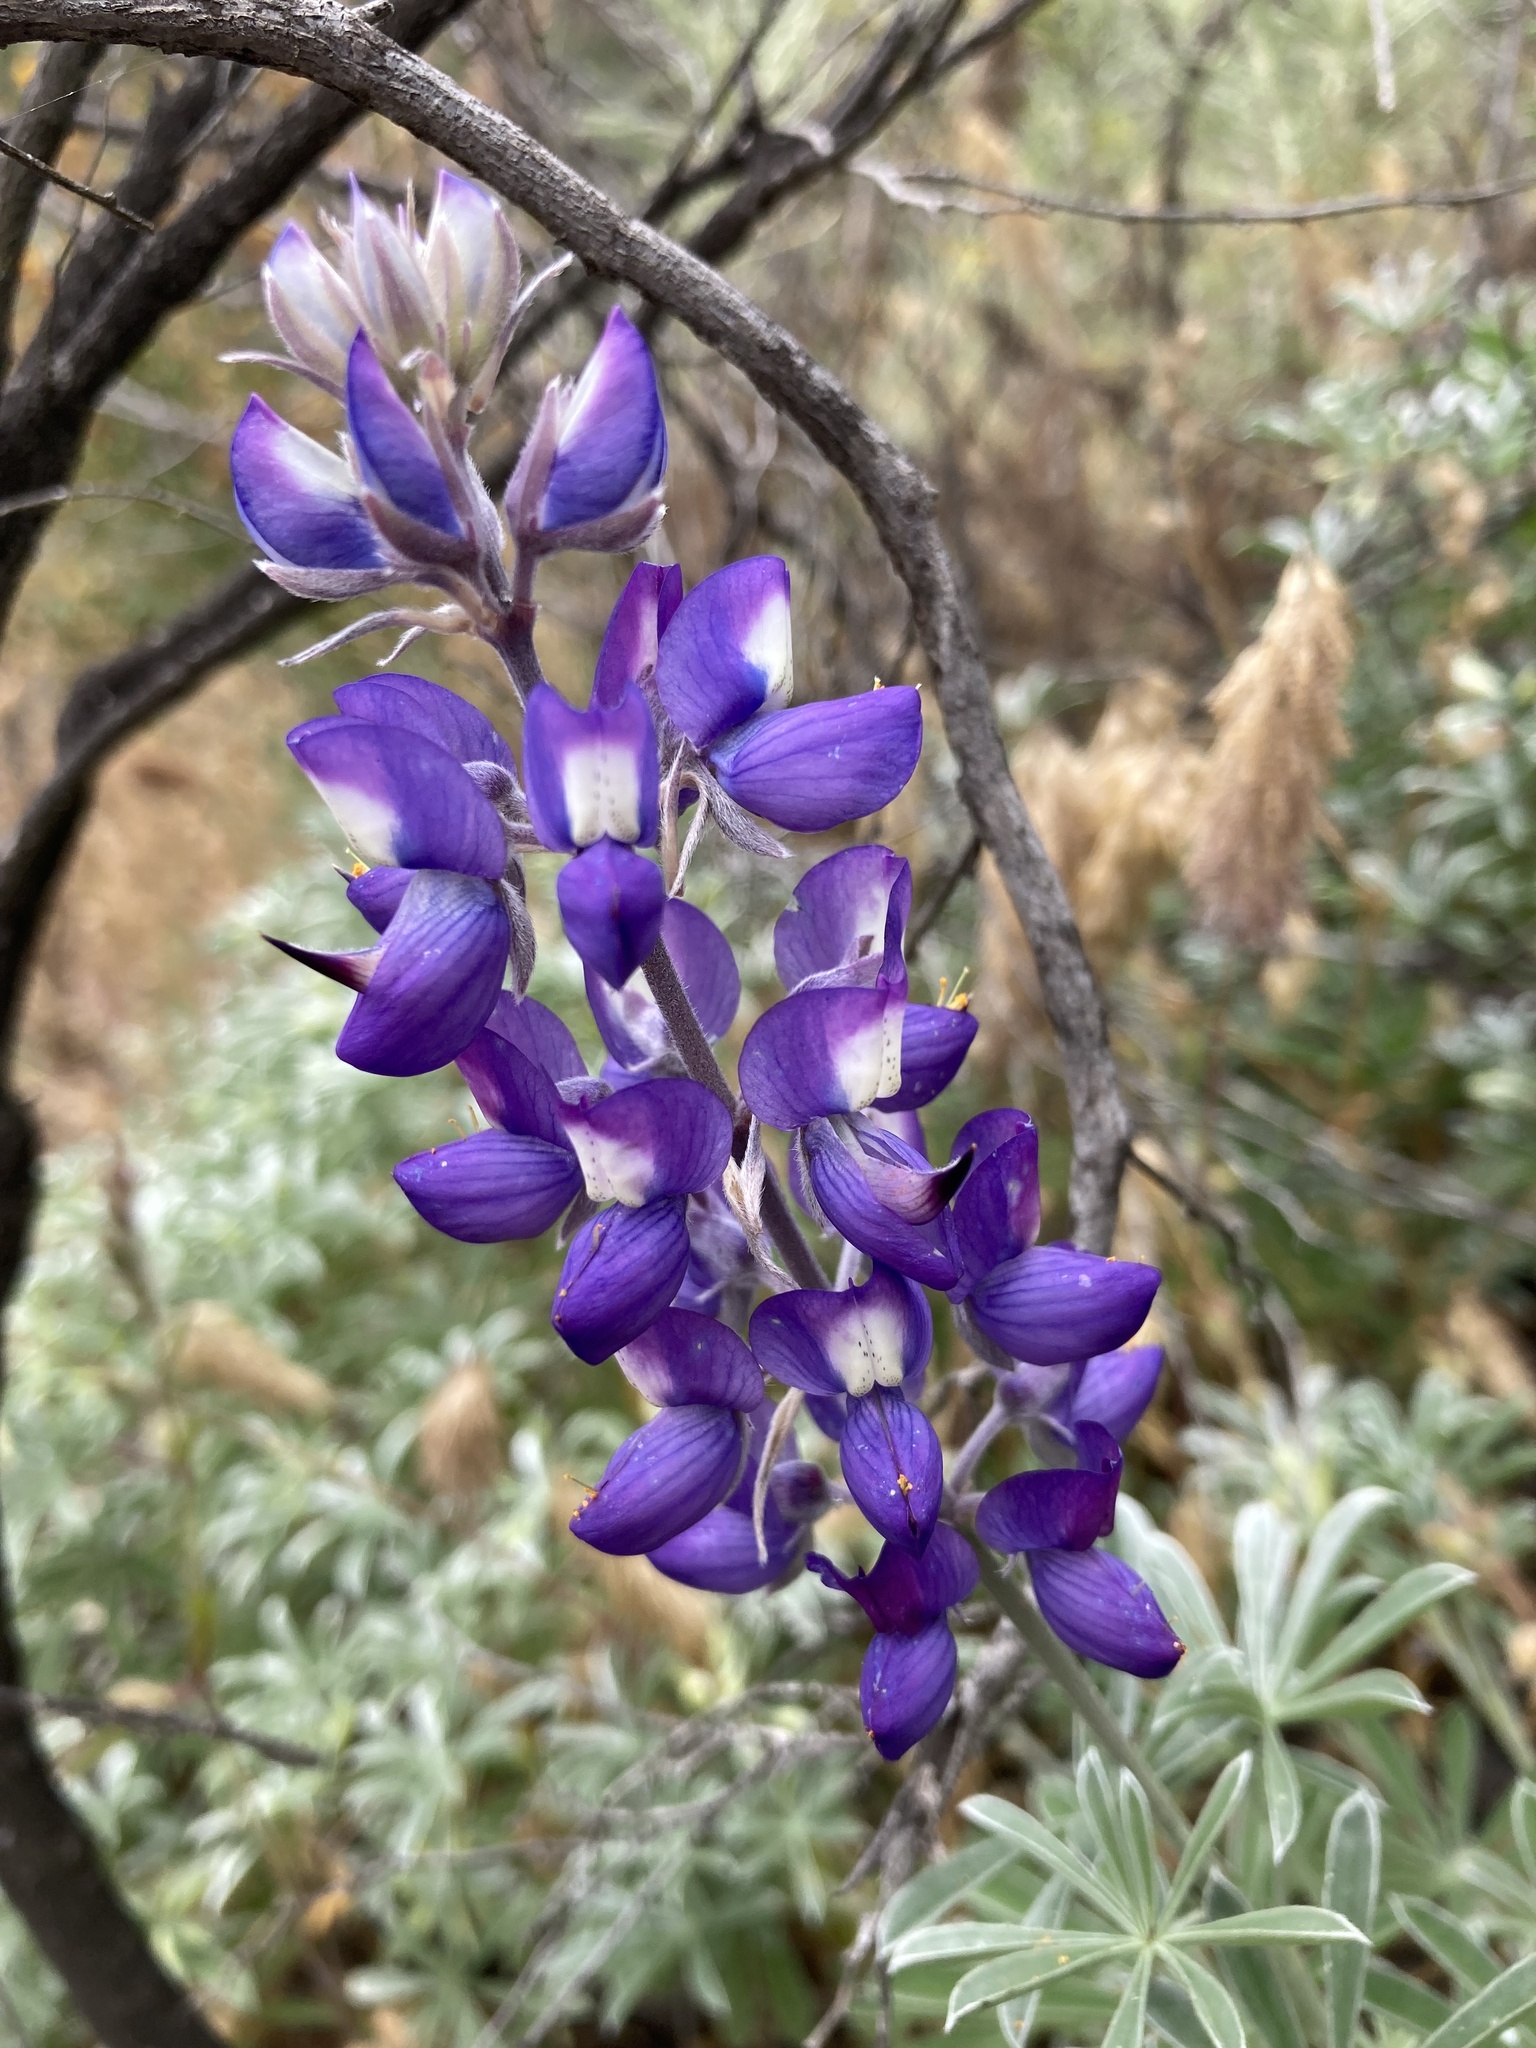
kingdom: Plantae
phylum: Tracheophyta
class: Magnoliopsida
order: Fabales
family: Fabaceae
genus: Lupinus
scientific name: Lupinus albifrons
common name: Foothill lupine
